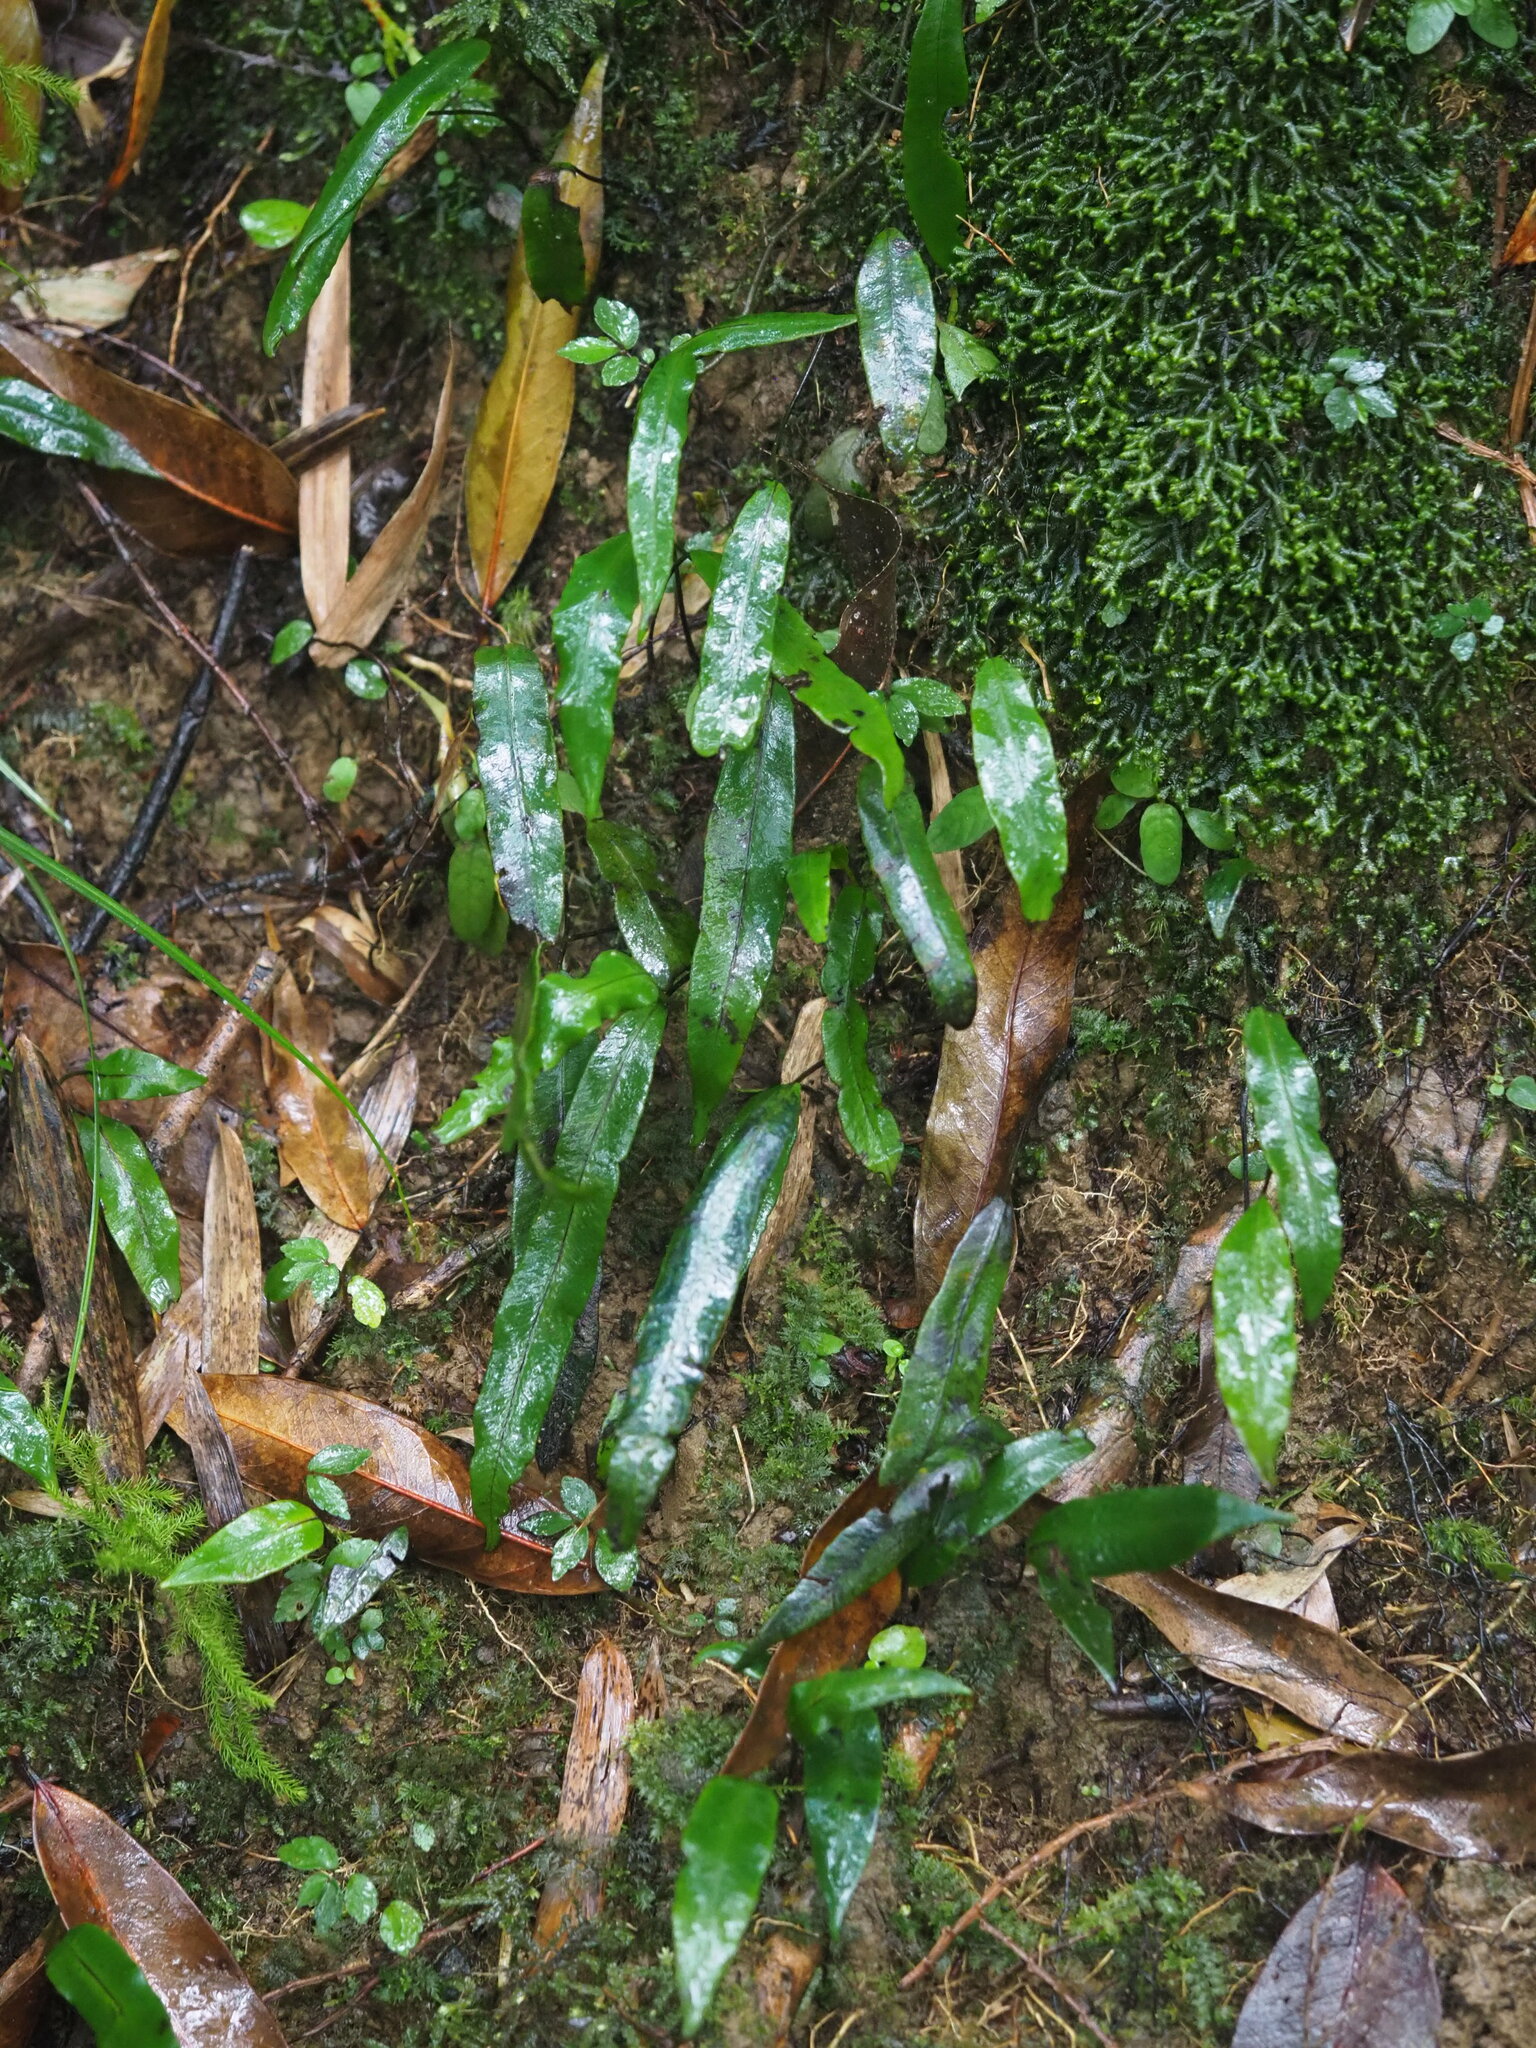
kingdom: Plantae
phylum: Tracheophyta
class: Polypodiopsida
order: Polypodiales
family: Athyriaceae
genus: Deparia
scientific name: Deparia lancea
